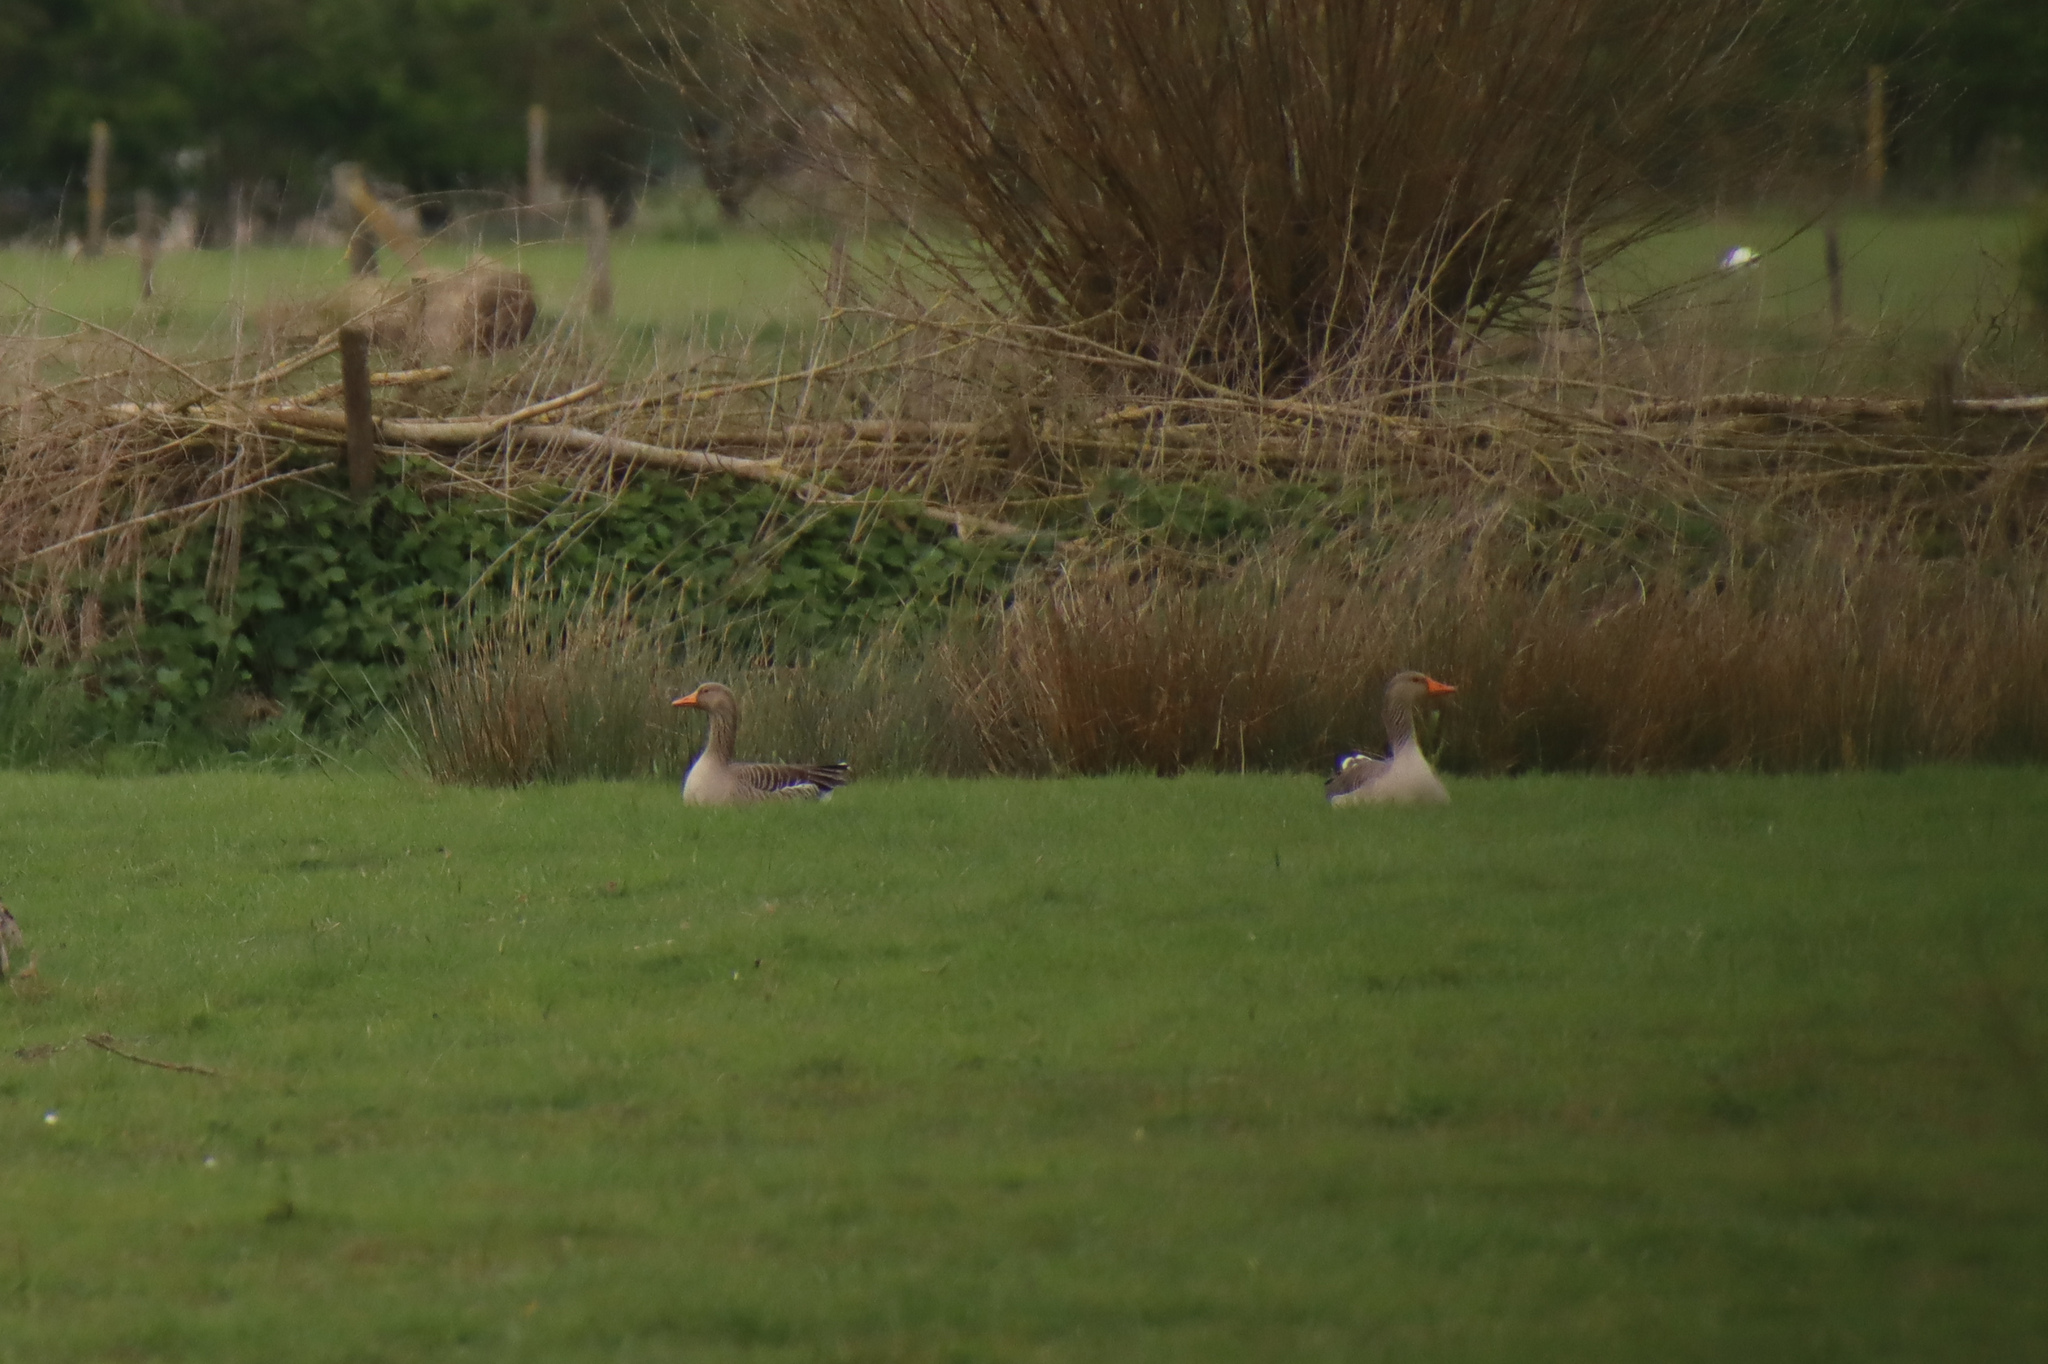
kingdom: Animalia
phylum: Chordata
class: Aves
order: Anseriformes
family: Anatidae
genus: Anser
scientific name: Anser anser
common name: Greylag goose
